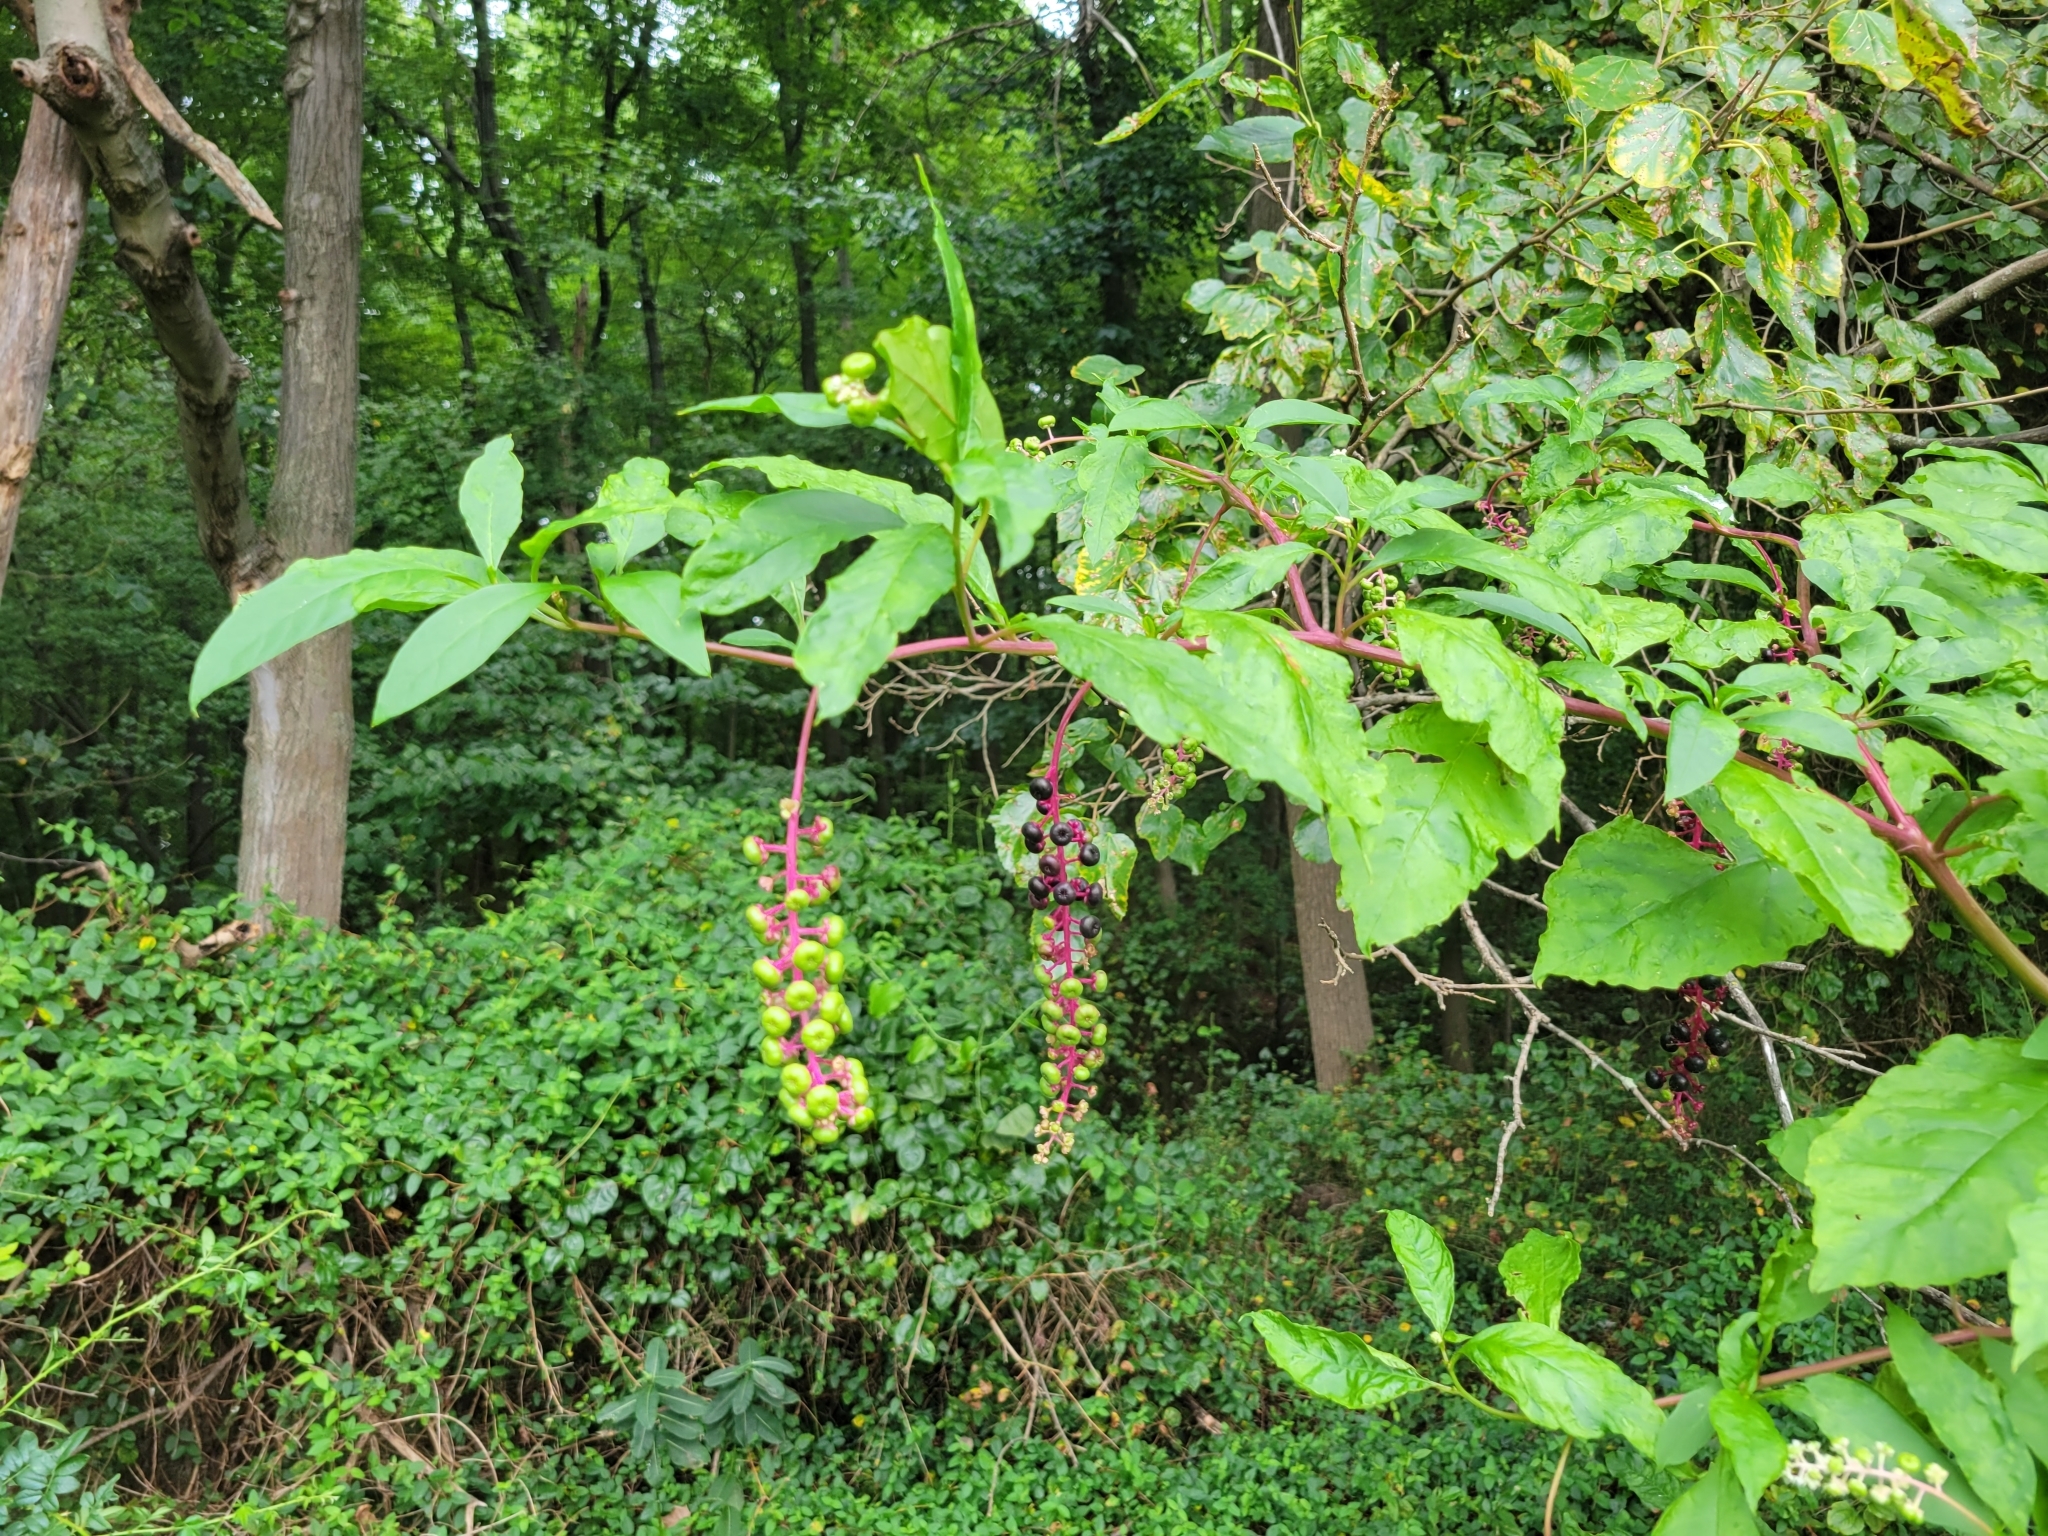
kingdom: Plantae
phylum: Tracheophyta
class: Magnoliopsida
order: Caryophyllales
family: Phytolaccaceae
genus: Phytolacca
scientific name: Phytolacca americana
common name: American pokeweed
